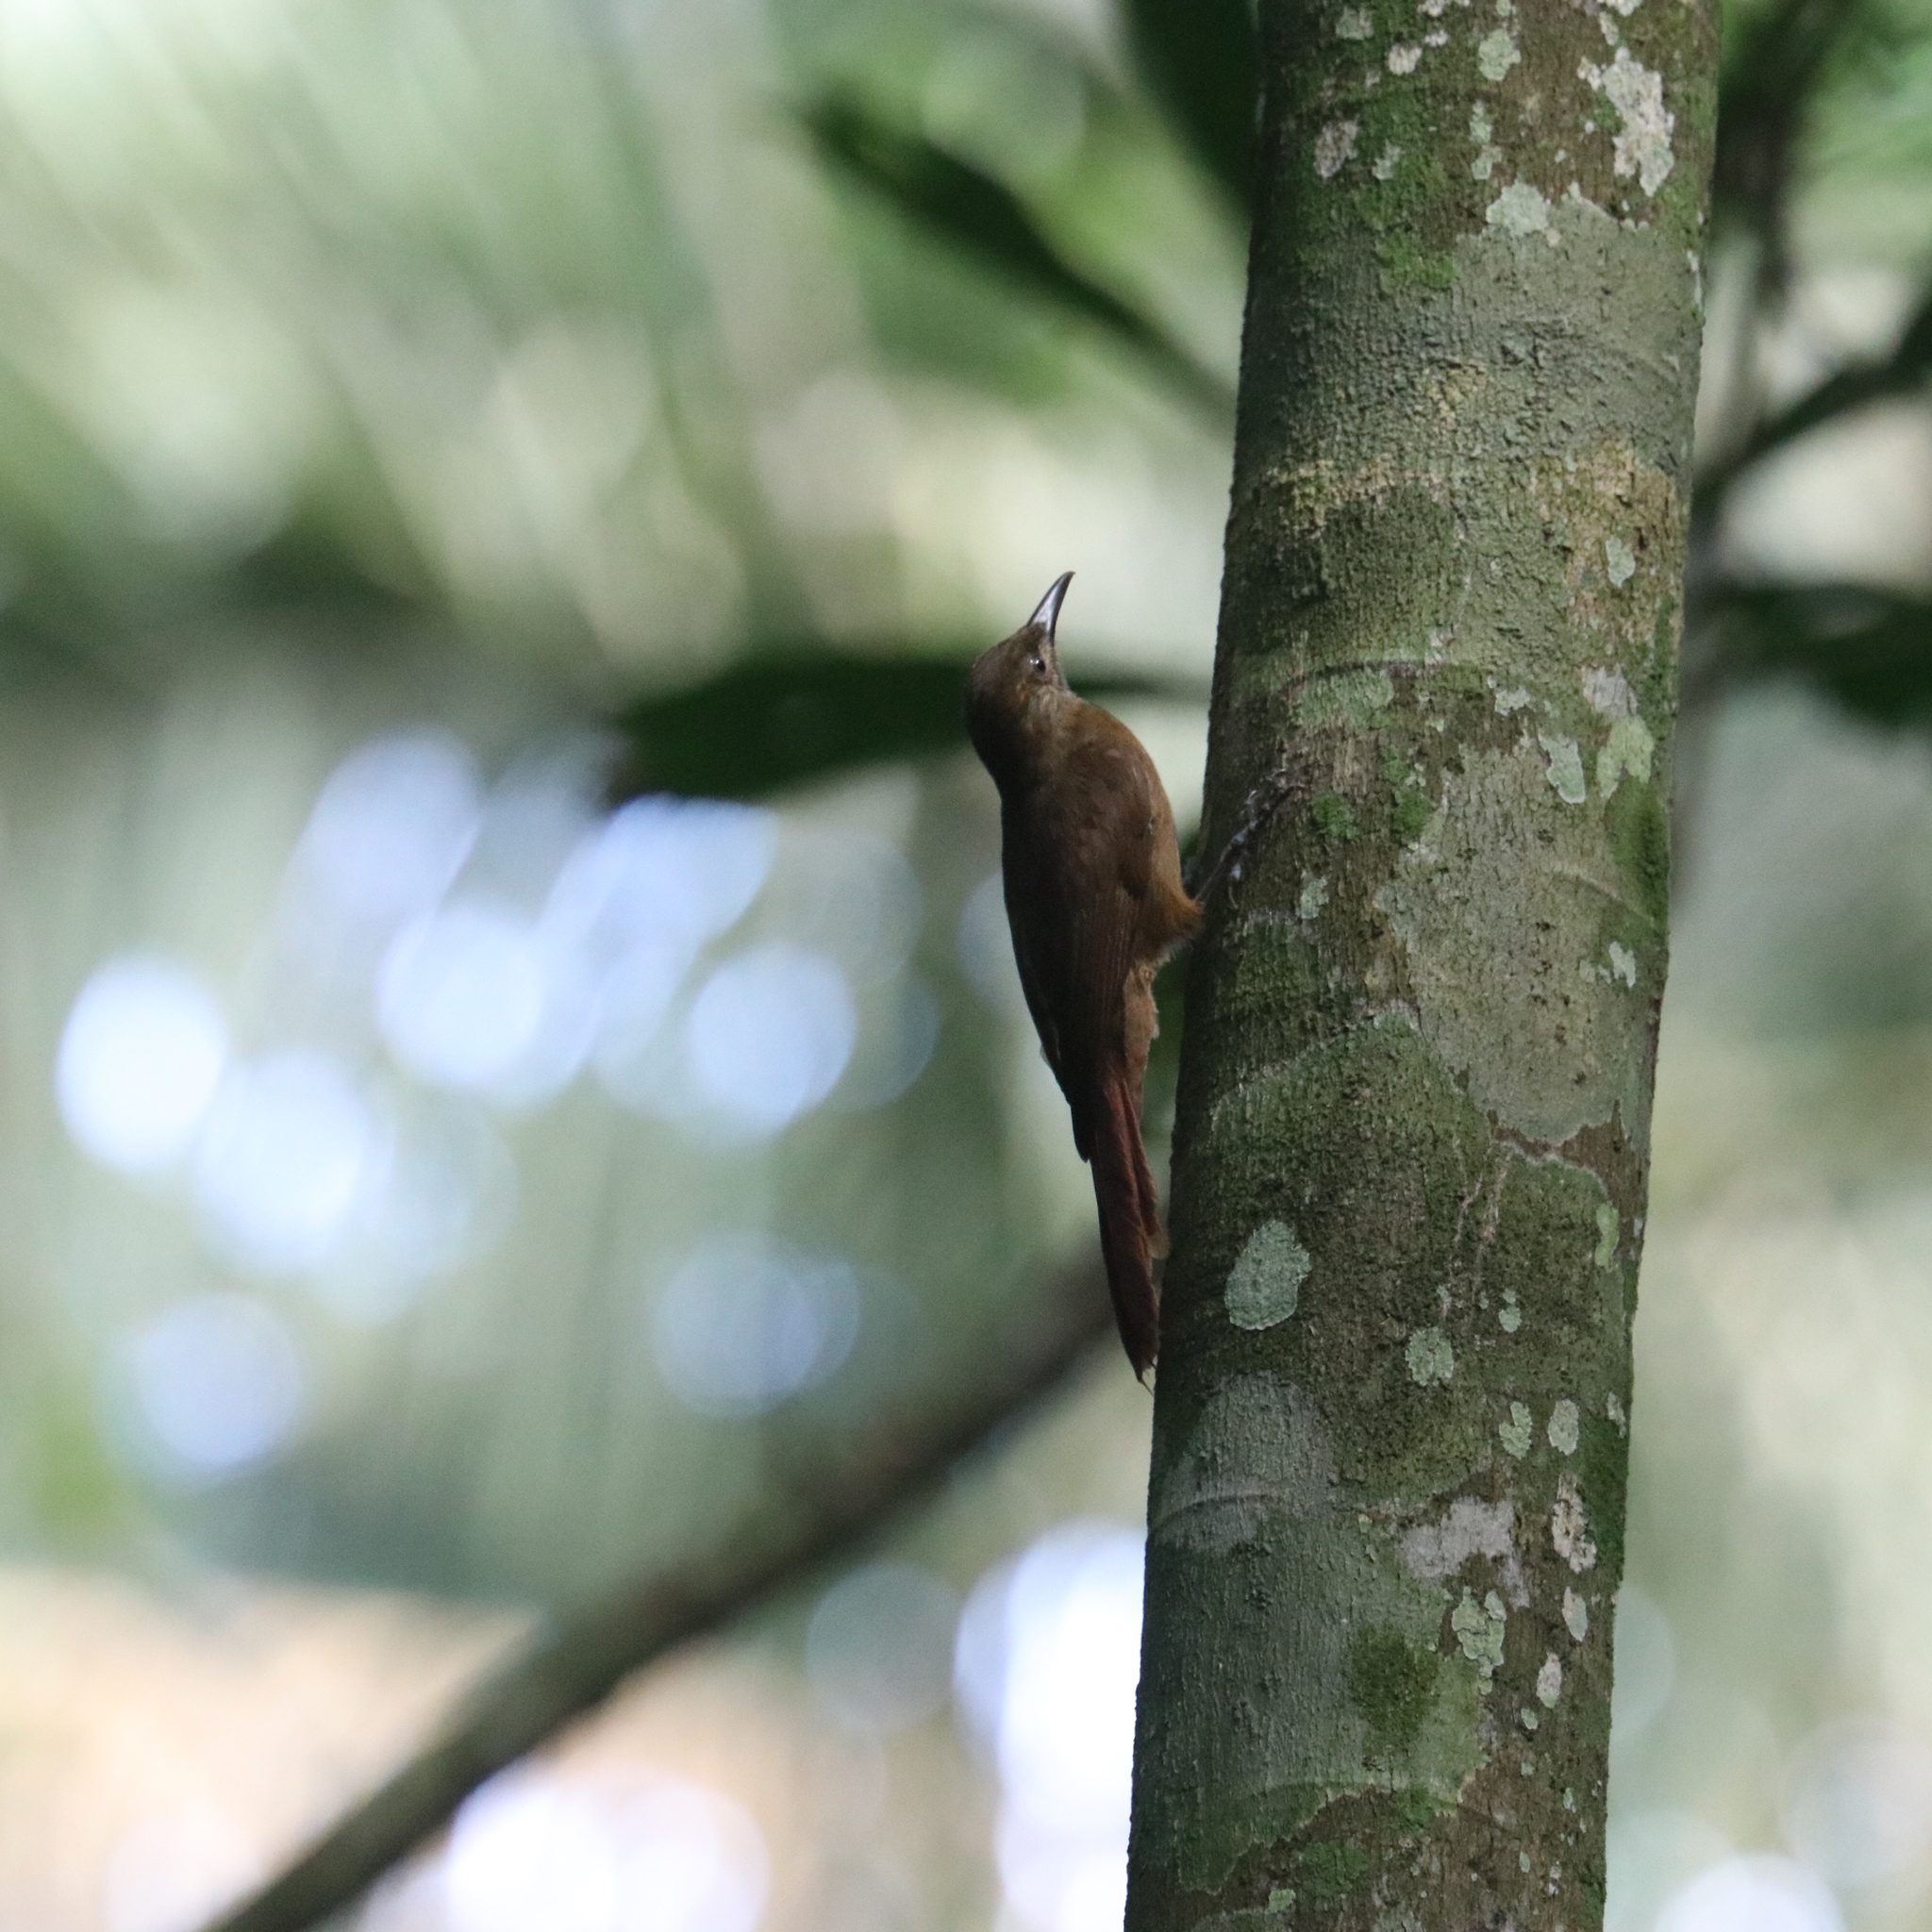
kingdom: Animalia
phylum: Chordata
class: Aves
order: Passeriformes
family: Furnariidae
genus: Dendrocincla
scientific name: Dendrocincla fuliginosa
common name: Plain-brown woodcreeper
